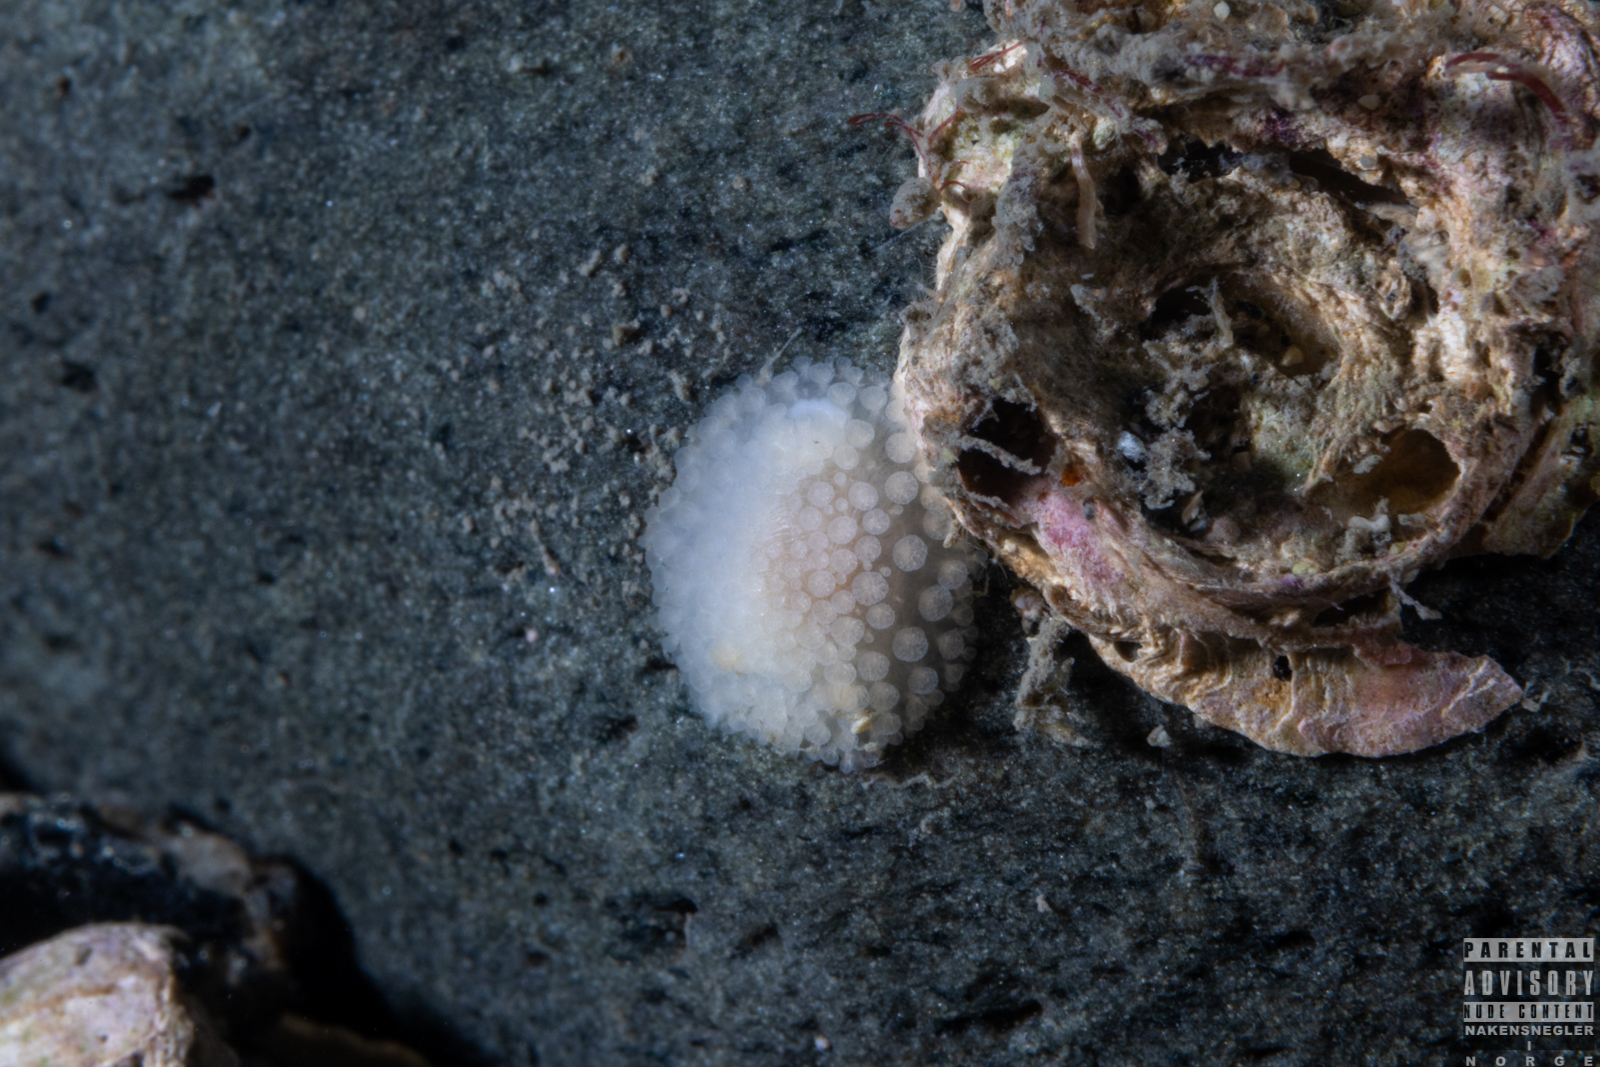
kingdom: Animalia
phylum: Mollusca
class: Gastropoda
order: Nudibranchia
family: Onchidorididae
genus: Onchidoris
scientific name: Onchidoris muricata
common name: Rough doris
